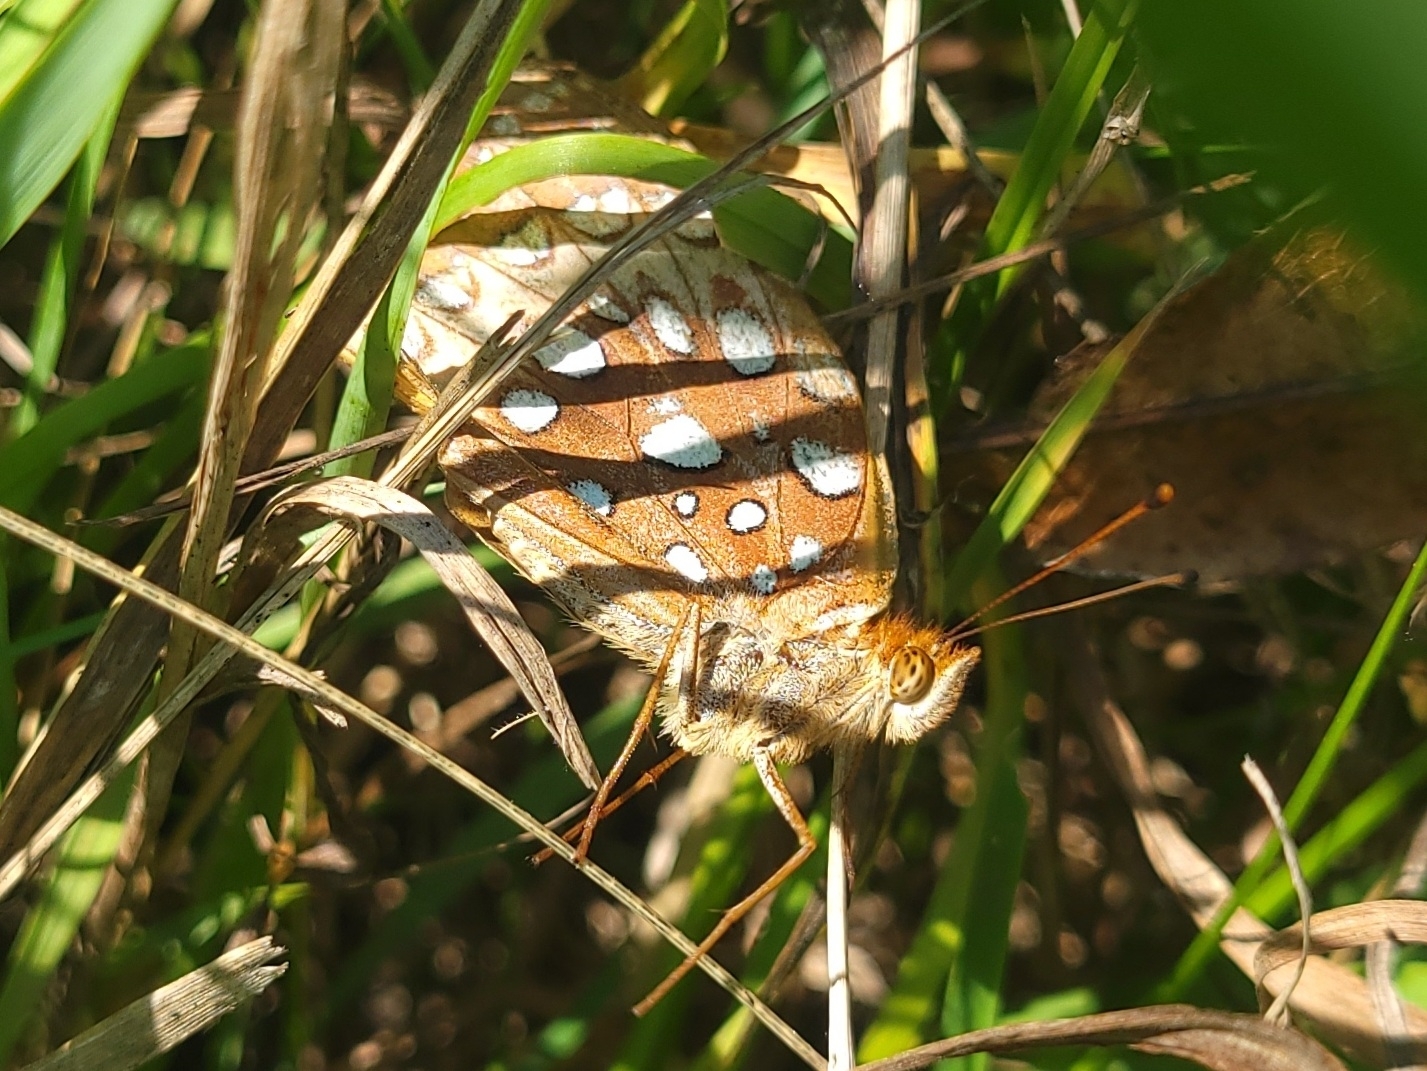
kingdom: Animalia
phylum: Arthropoda
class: Insecta
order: Lepidoptera
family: Nymphalidae
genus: Speyeria
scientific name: Speyeria cybele
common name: Great spangled fritillary
